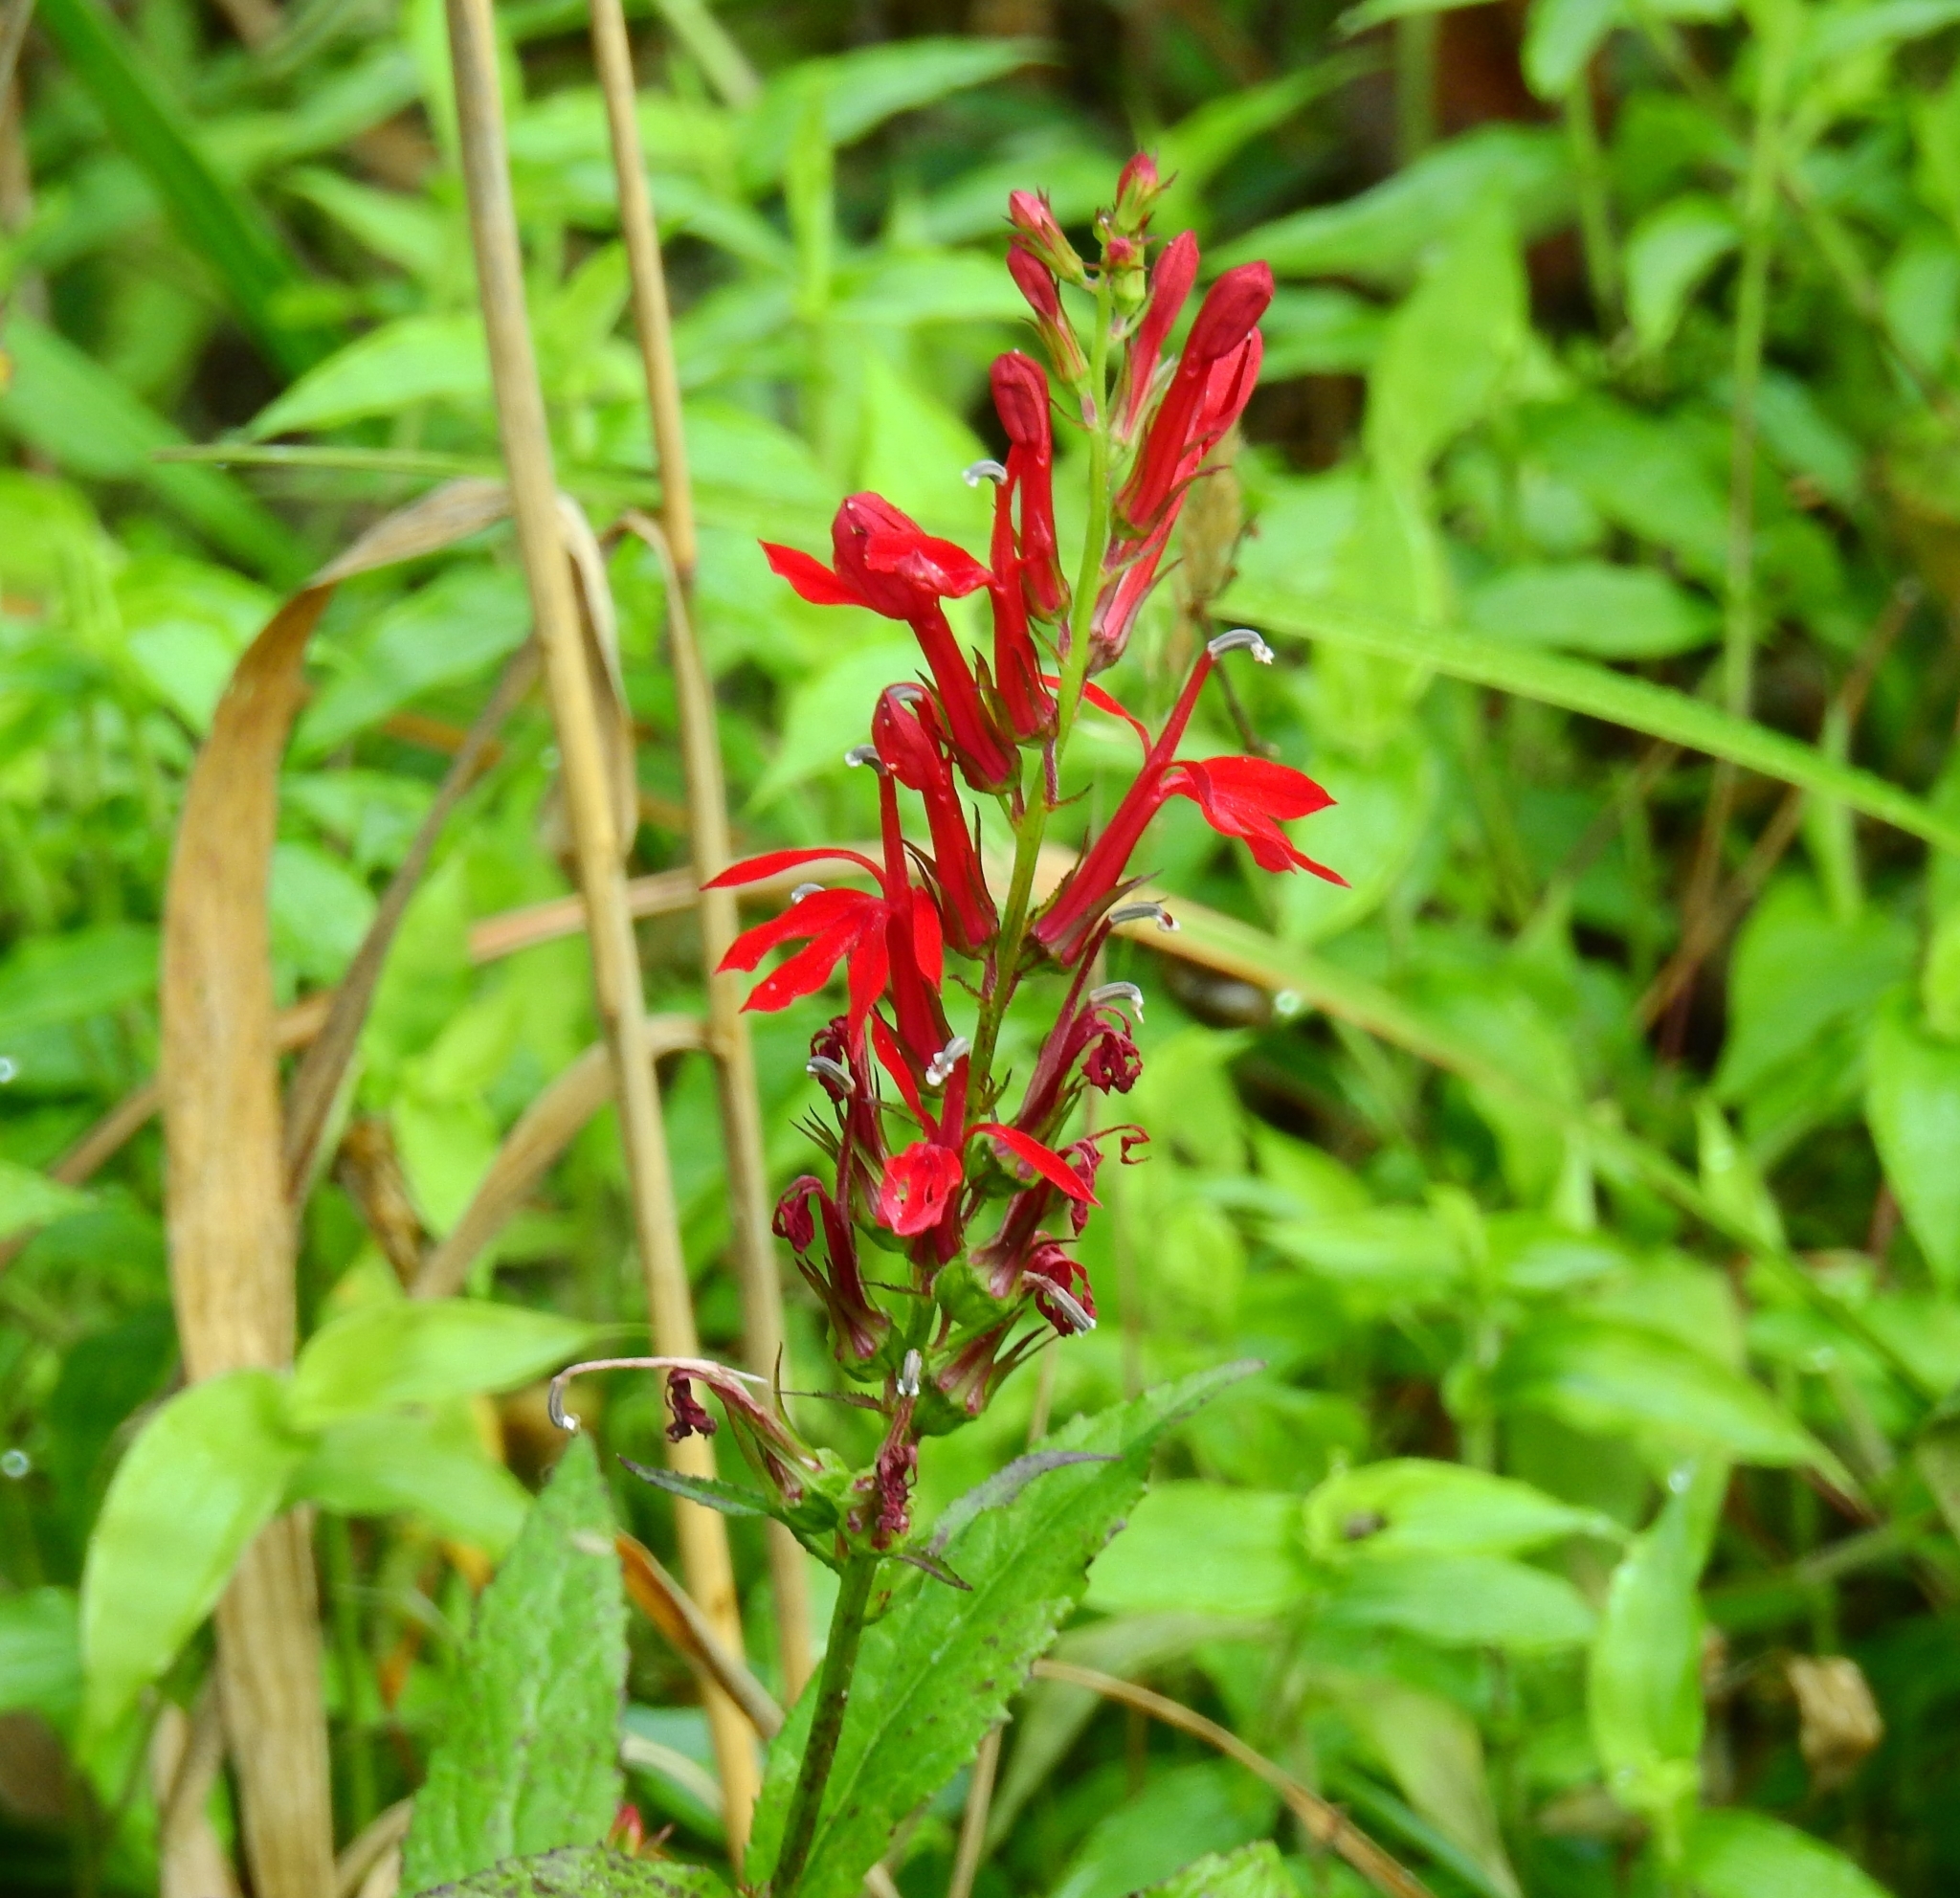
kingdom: Plantae
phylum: Tracheophyta
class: Magnoliopsida
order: Asterales
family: Campanulaceae
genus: Lobelia
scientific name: Lobelia cardinalis
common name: Cardinal flower
